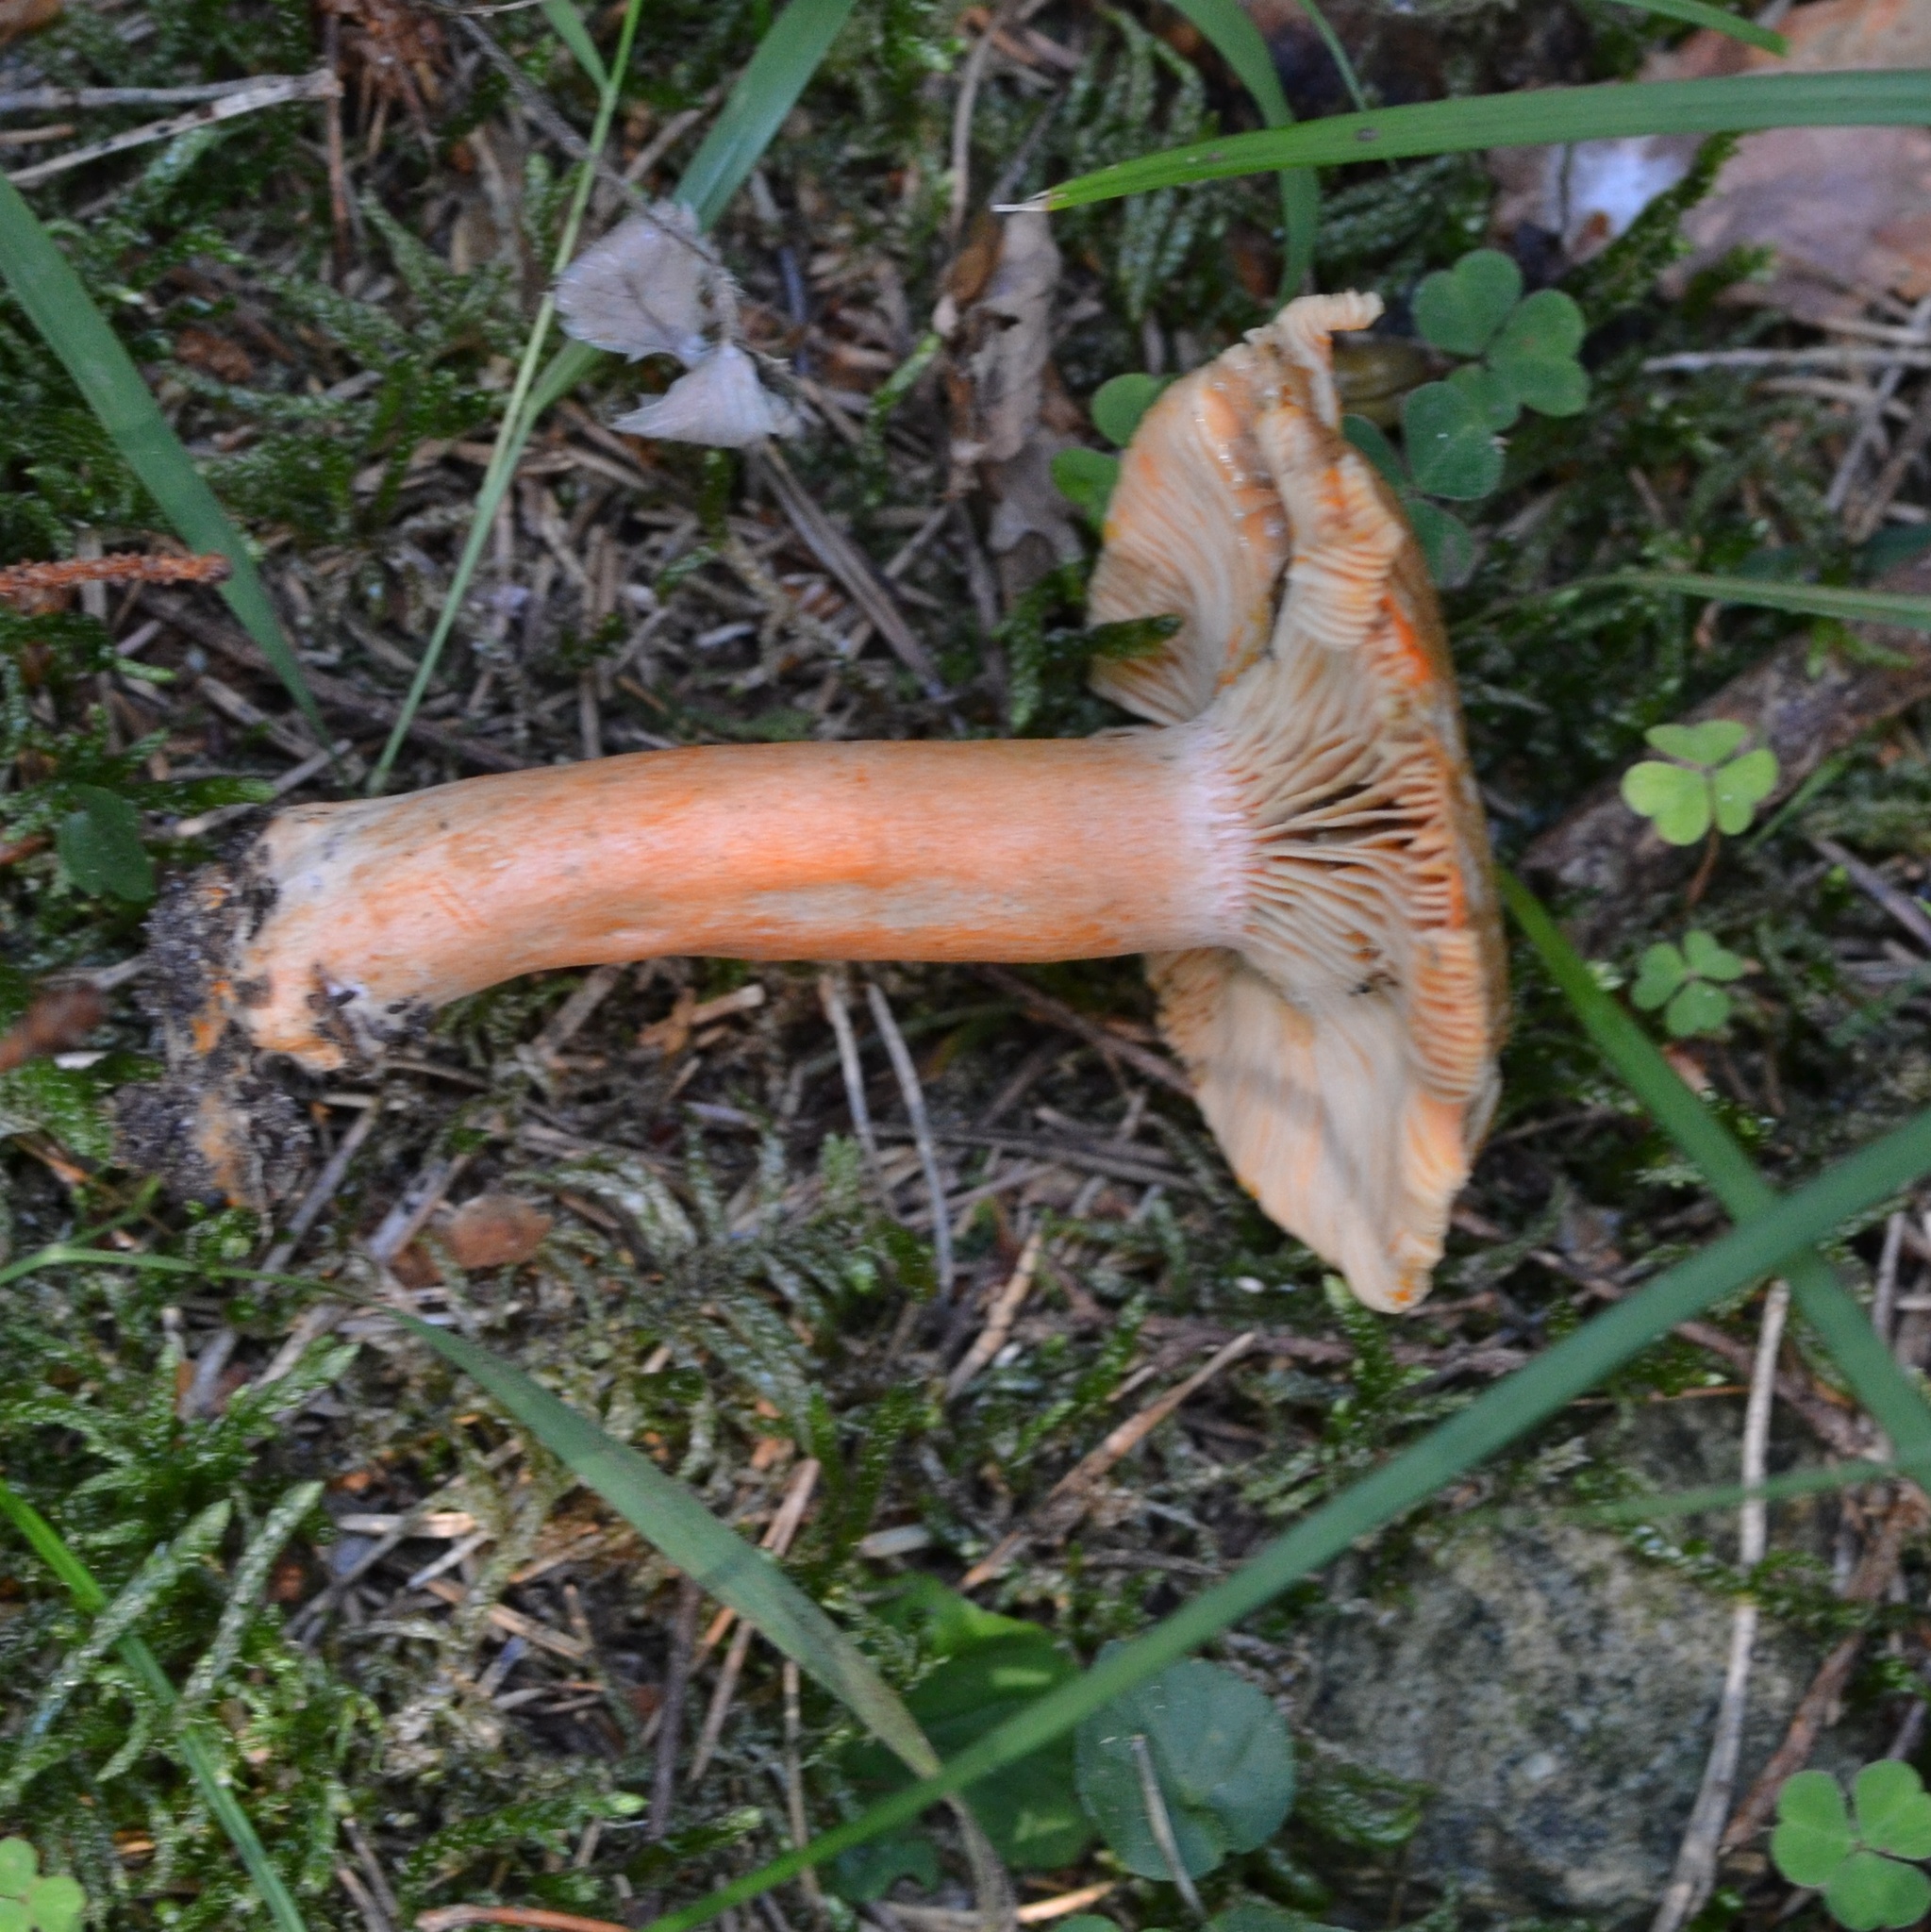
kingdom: Fungi
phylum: Basidiomycota
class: Agaricomycetes
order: Russulales
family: Russulaceae
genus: Lactarius
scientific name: Lactarius deterrimus
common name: False saffron milkcap
